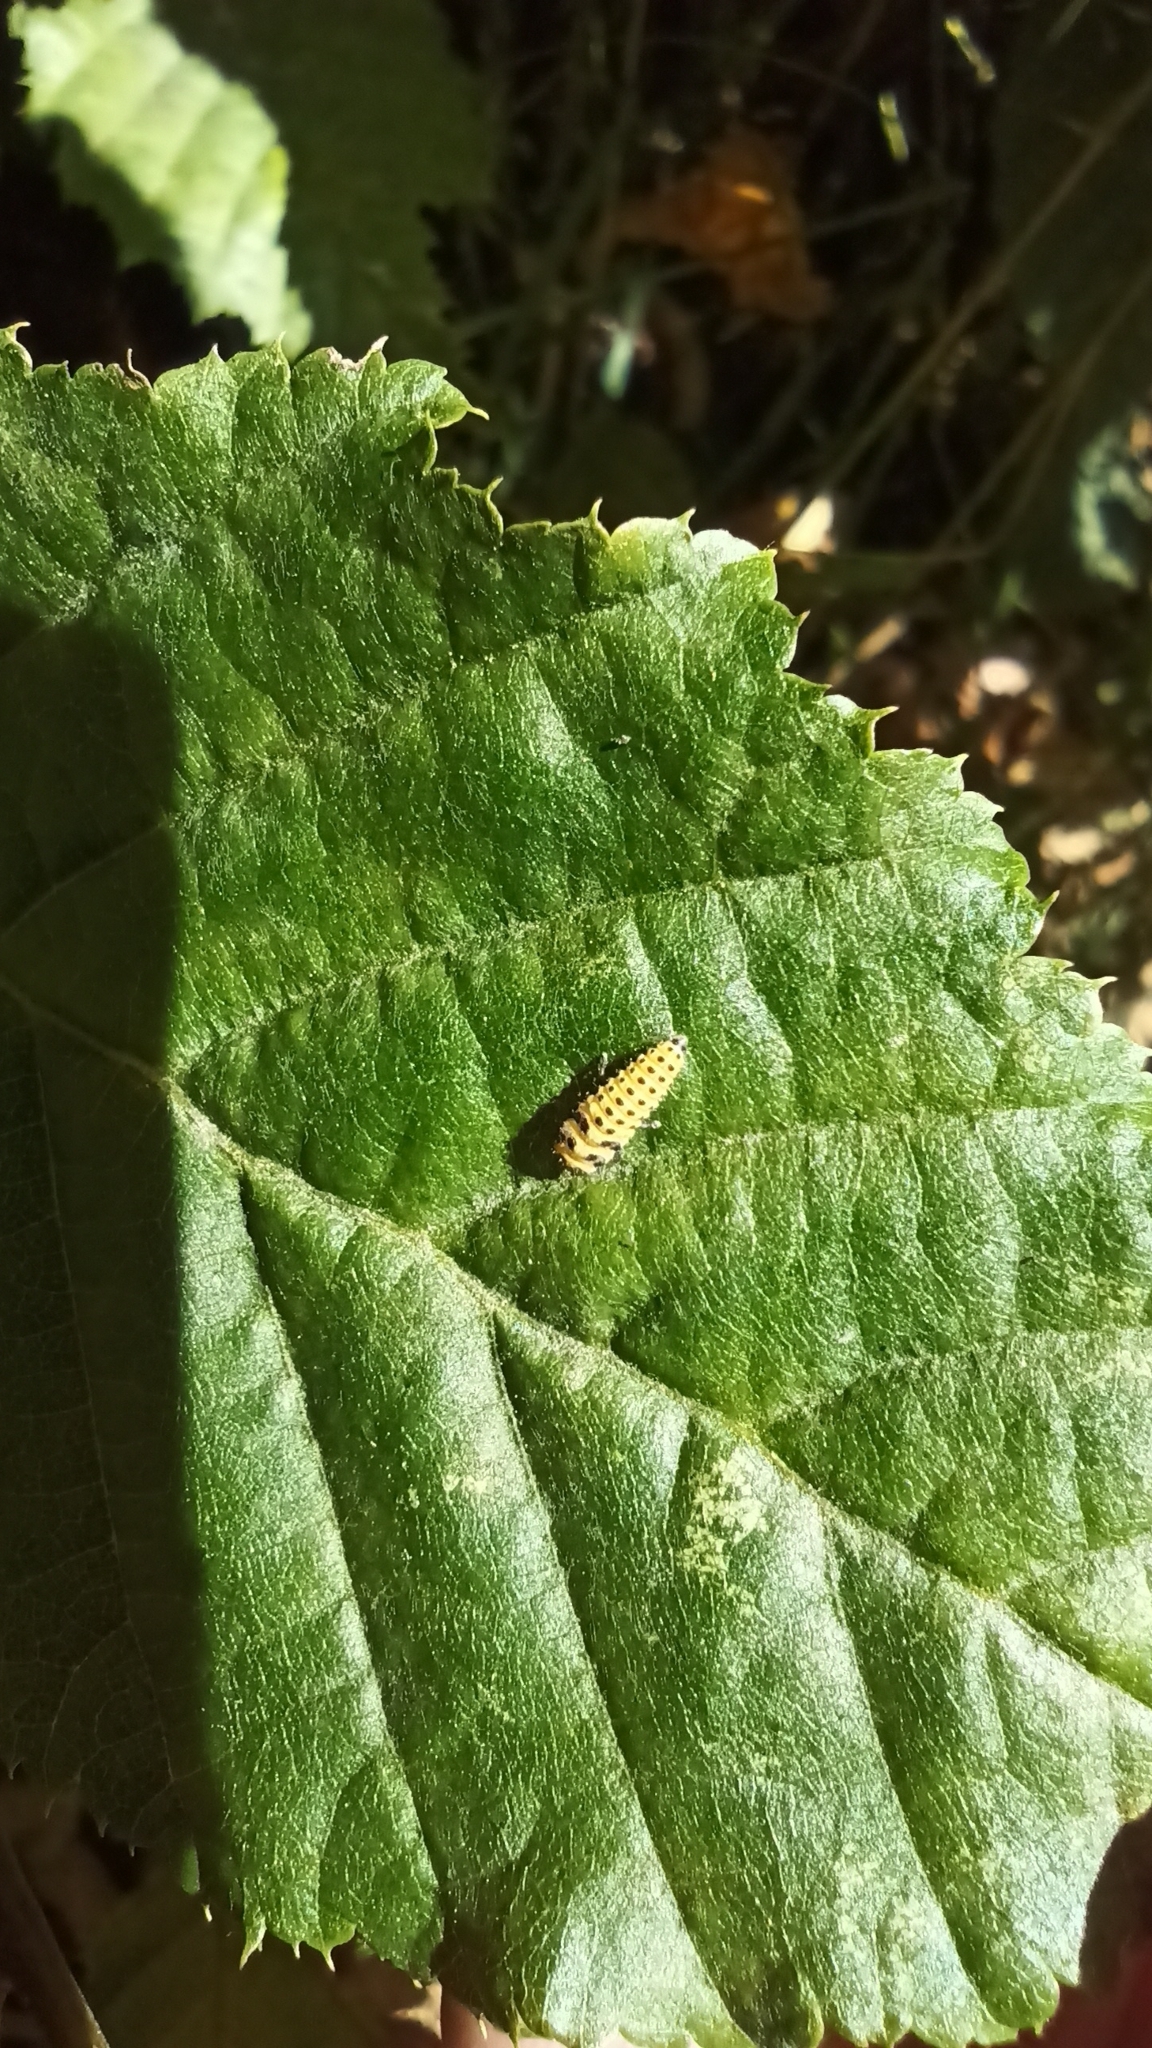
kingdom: Animalia
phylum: Arthropoda
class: Insecta
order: Coleoptera
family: Coccinellidae
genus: Psyllobora
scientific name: Psyllobora vigintiduopunctata
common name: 22-spot ladybird
